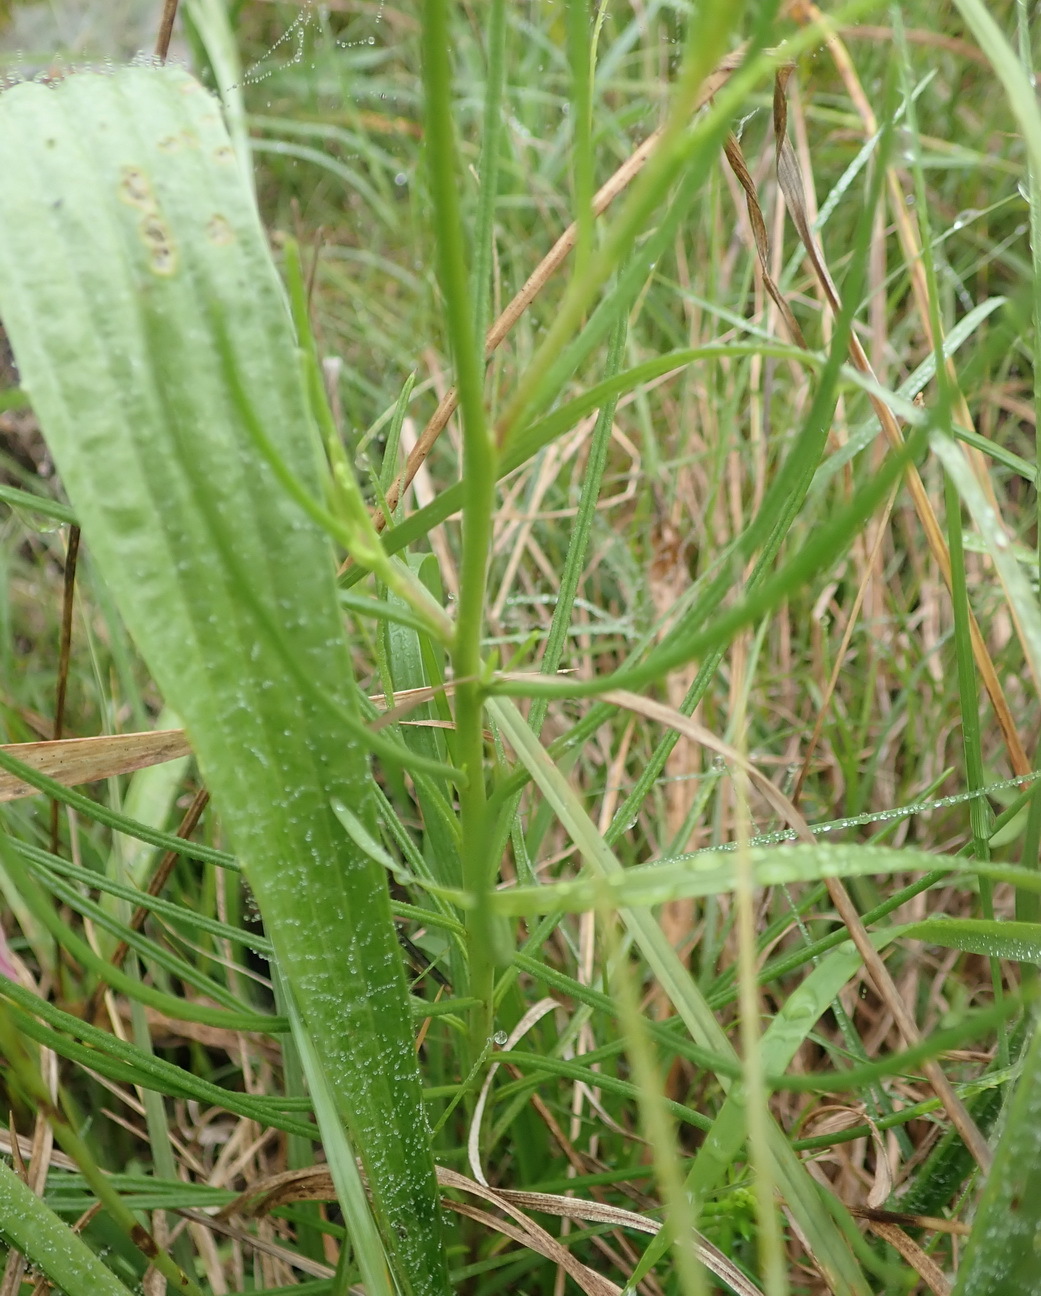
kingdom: Plantae
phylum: Tracheophyta
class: Magnoliopsida
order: Brassicales
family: Brassicaceae
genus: Heliophila
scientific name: Heliophila subulata
